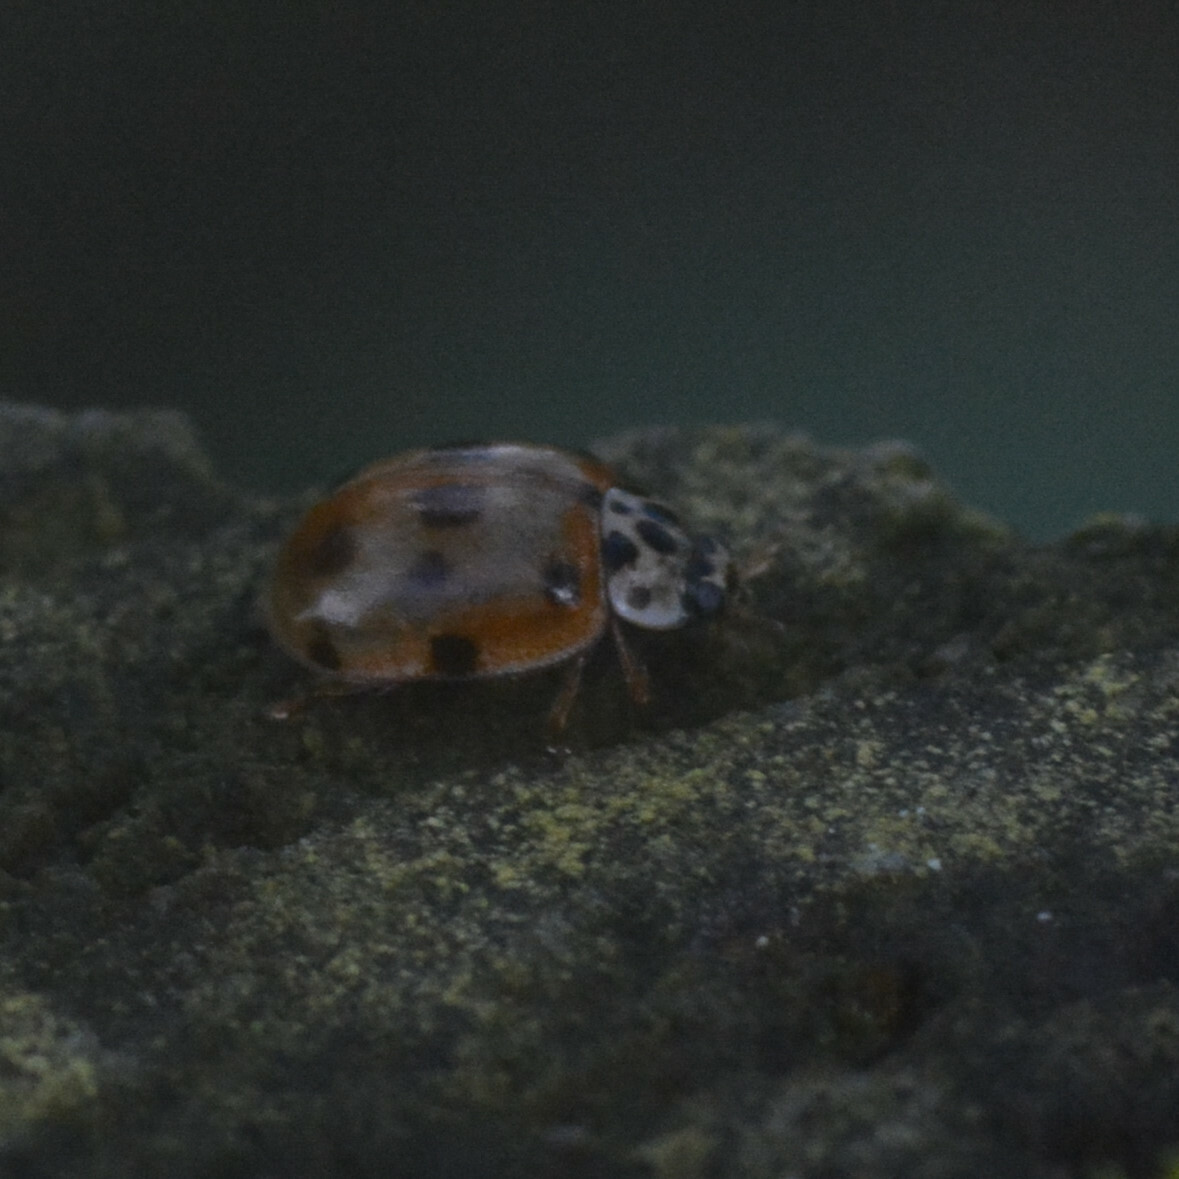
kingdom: Animalia
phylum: Arthropoda
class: Insecta
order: Coleoptera
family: Coccinellidae
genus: Adalia
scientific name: Adalia decempunctata
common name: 10-spot ladybird
